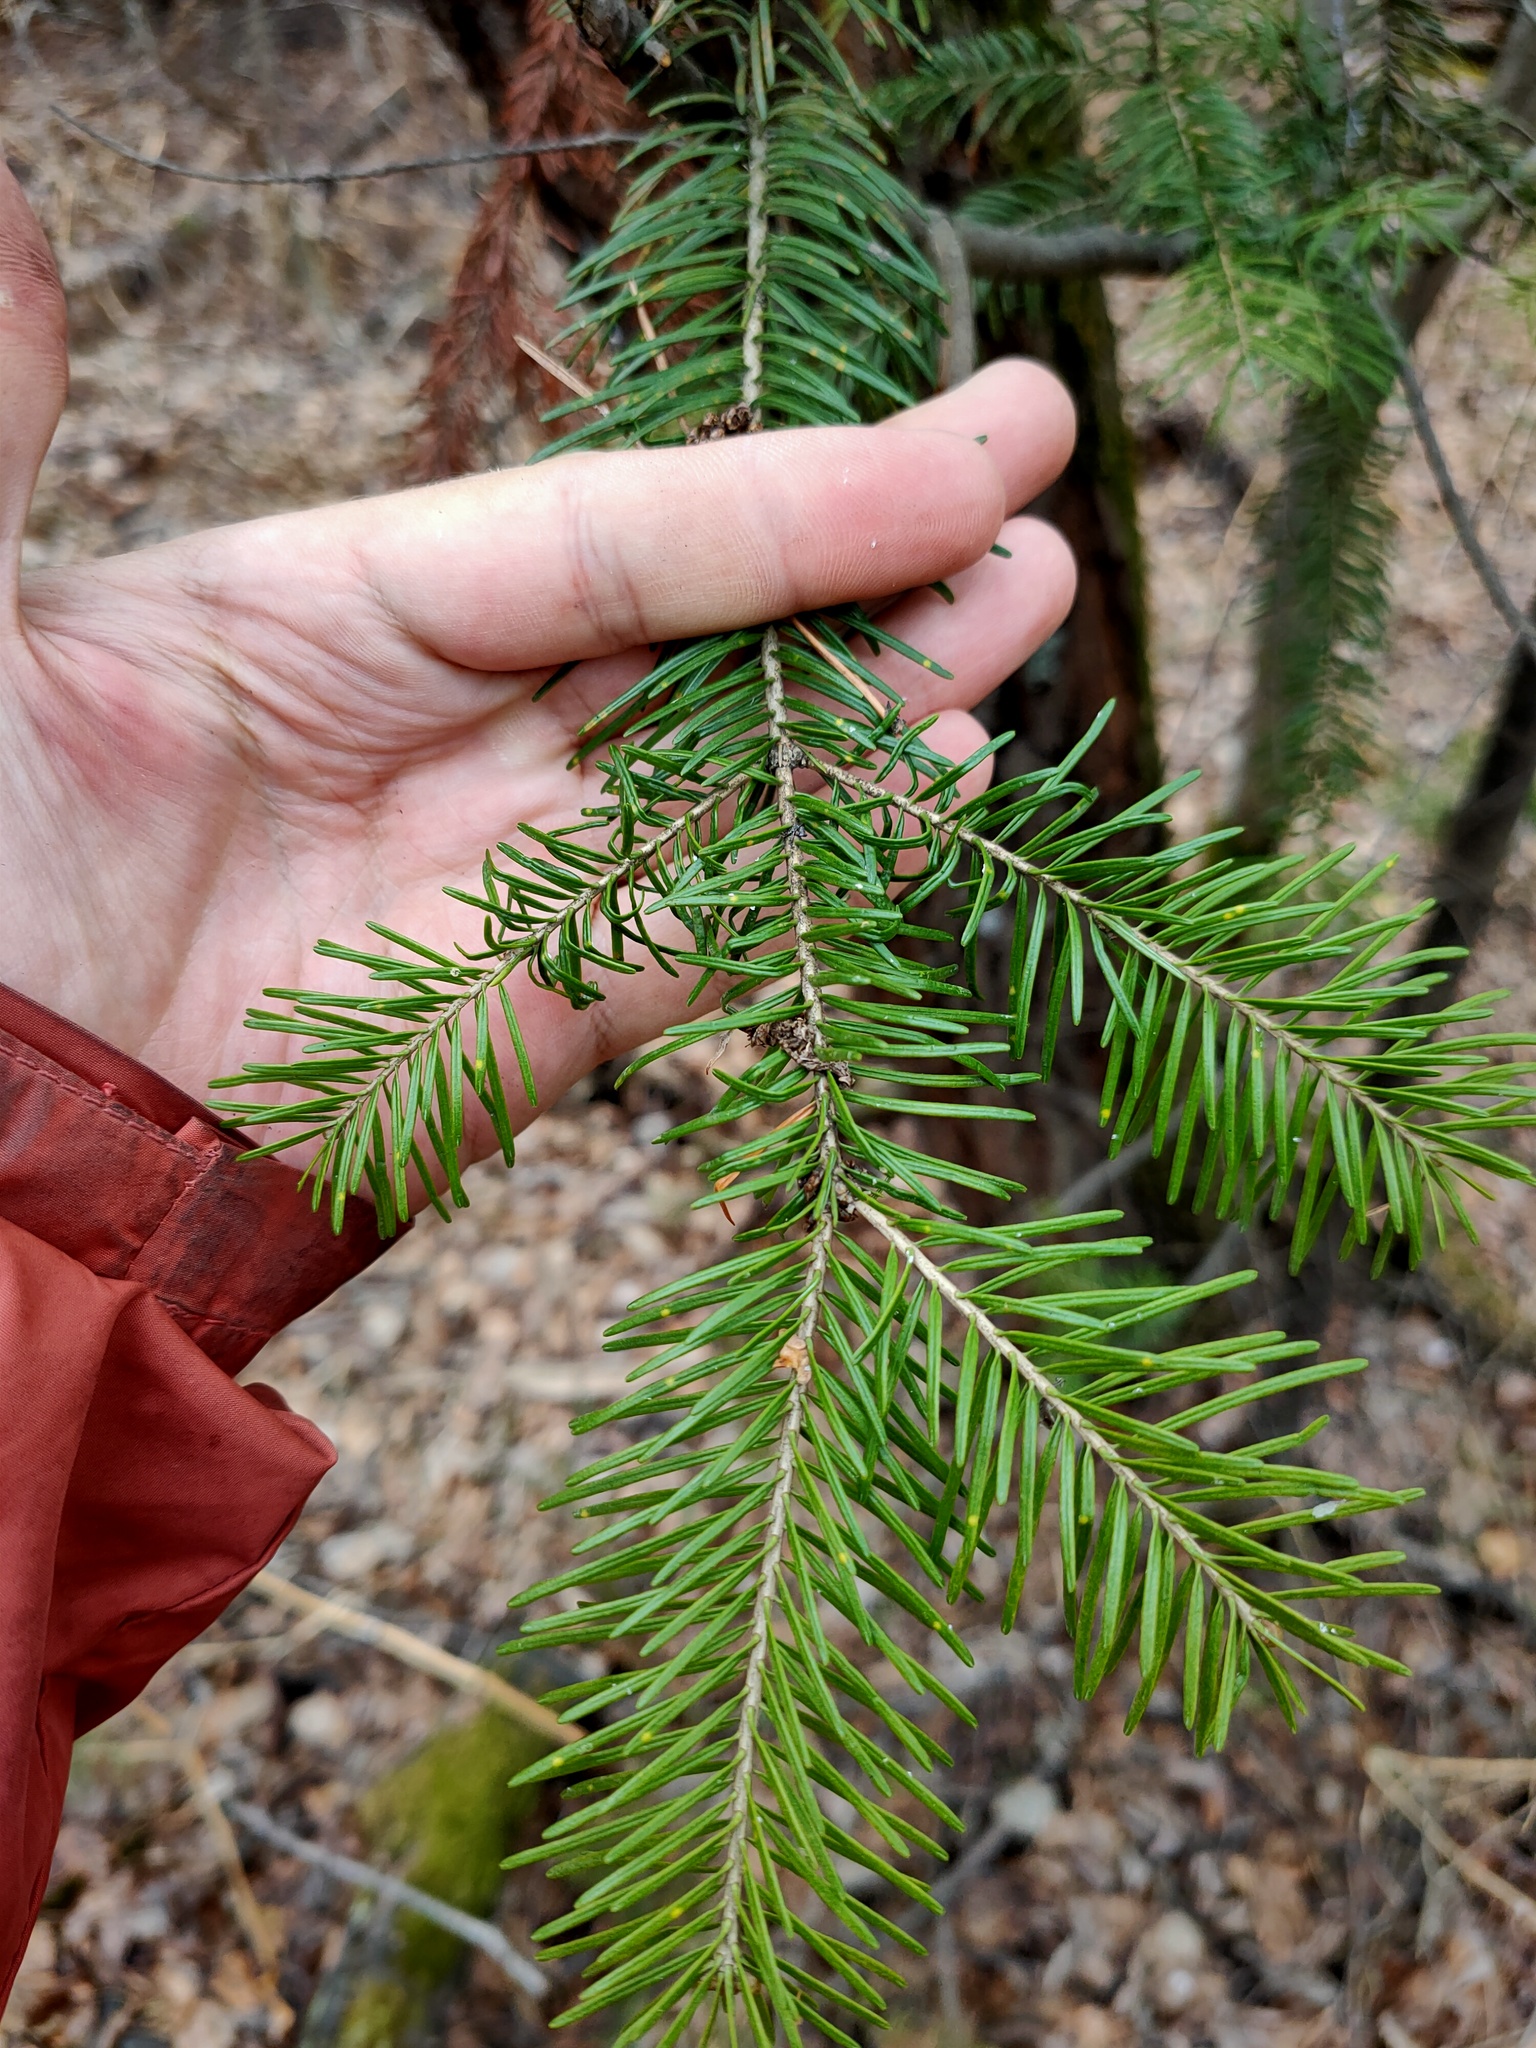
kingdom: Plantae
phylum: Tracheophyta
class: Pinopsida
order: Pinales
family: Pinaceae
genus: Abies
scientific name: Abies sibirica
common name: Siberian fir
